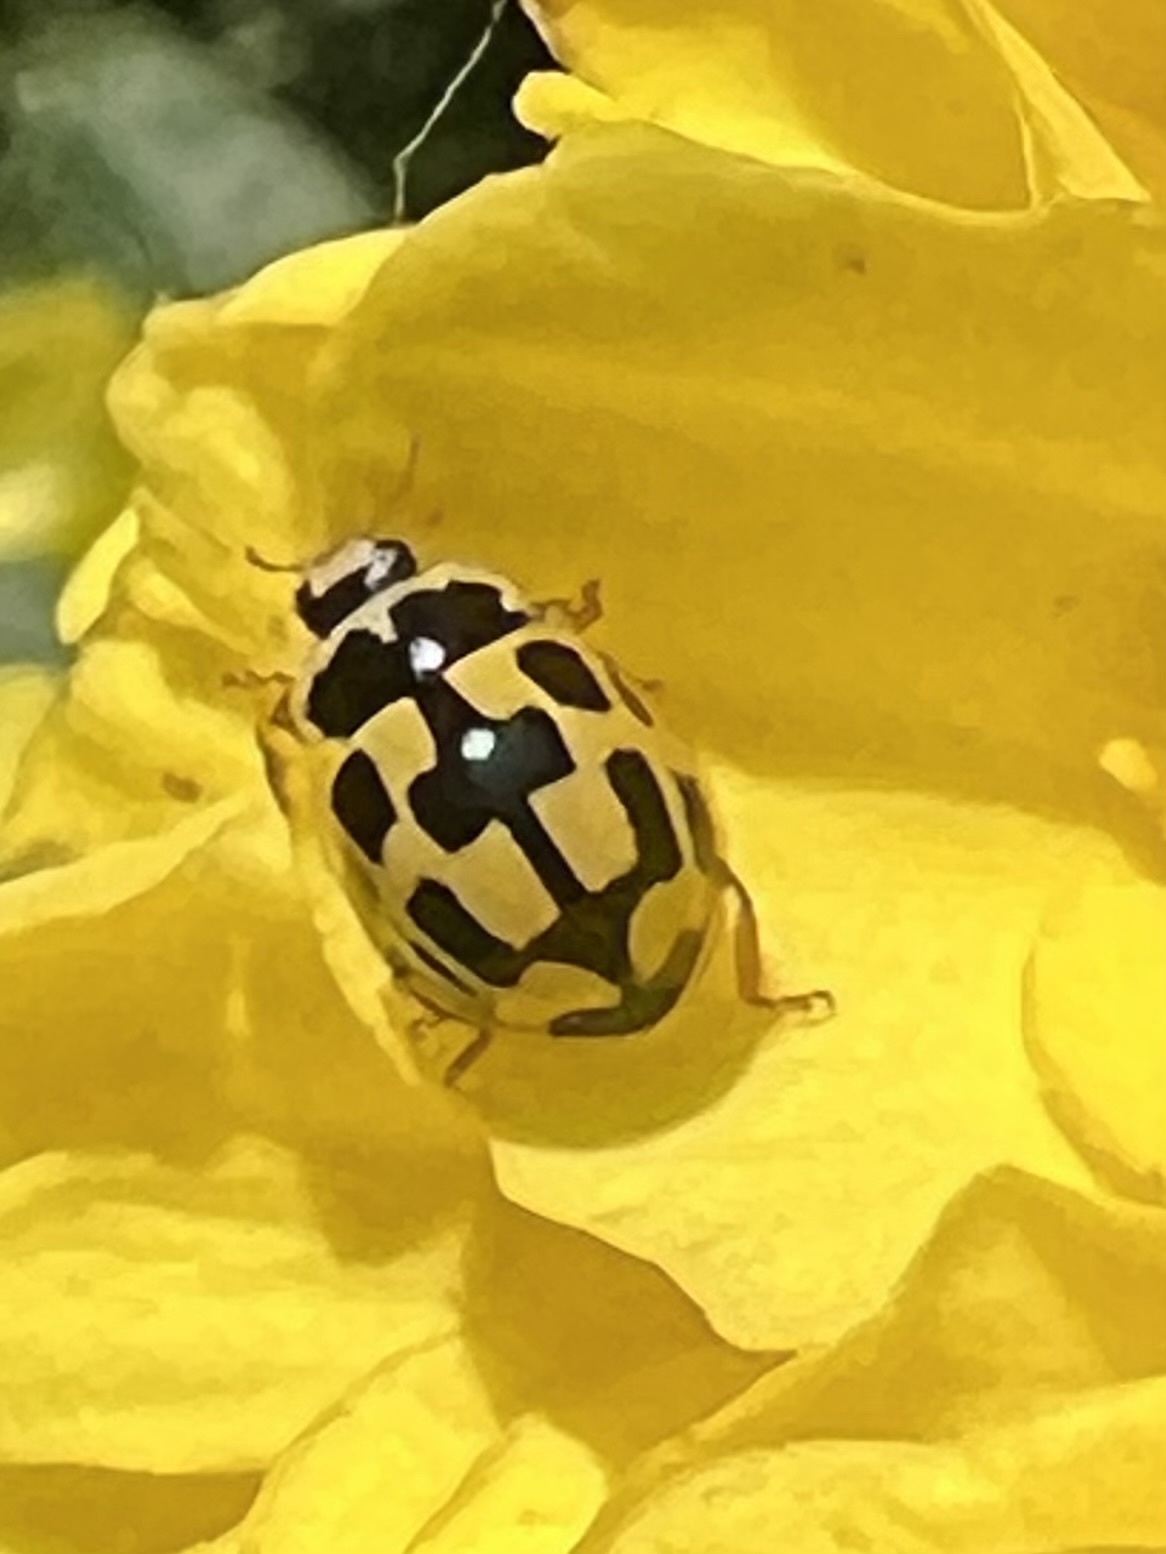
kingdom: Animalia
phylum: Arthropoda
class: Insecta
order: Coleoptera
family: Coccinellidae
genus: Propylaea
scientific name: Propylaea quatuordecimpunctata
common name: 14-spotted ladybird beetle
